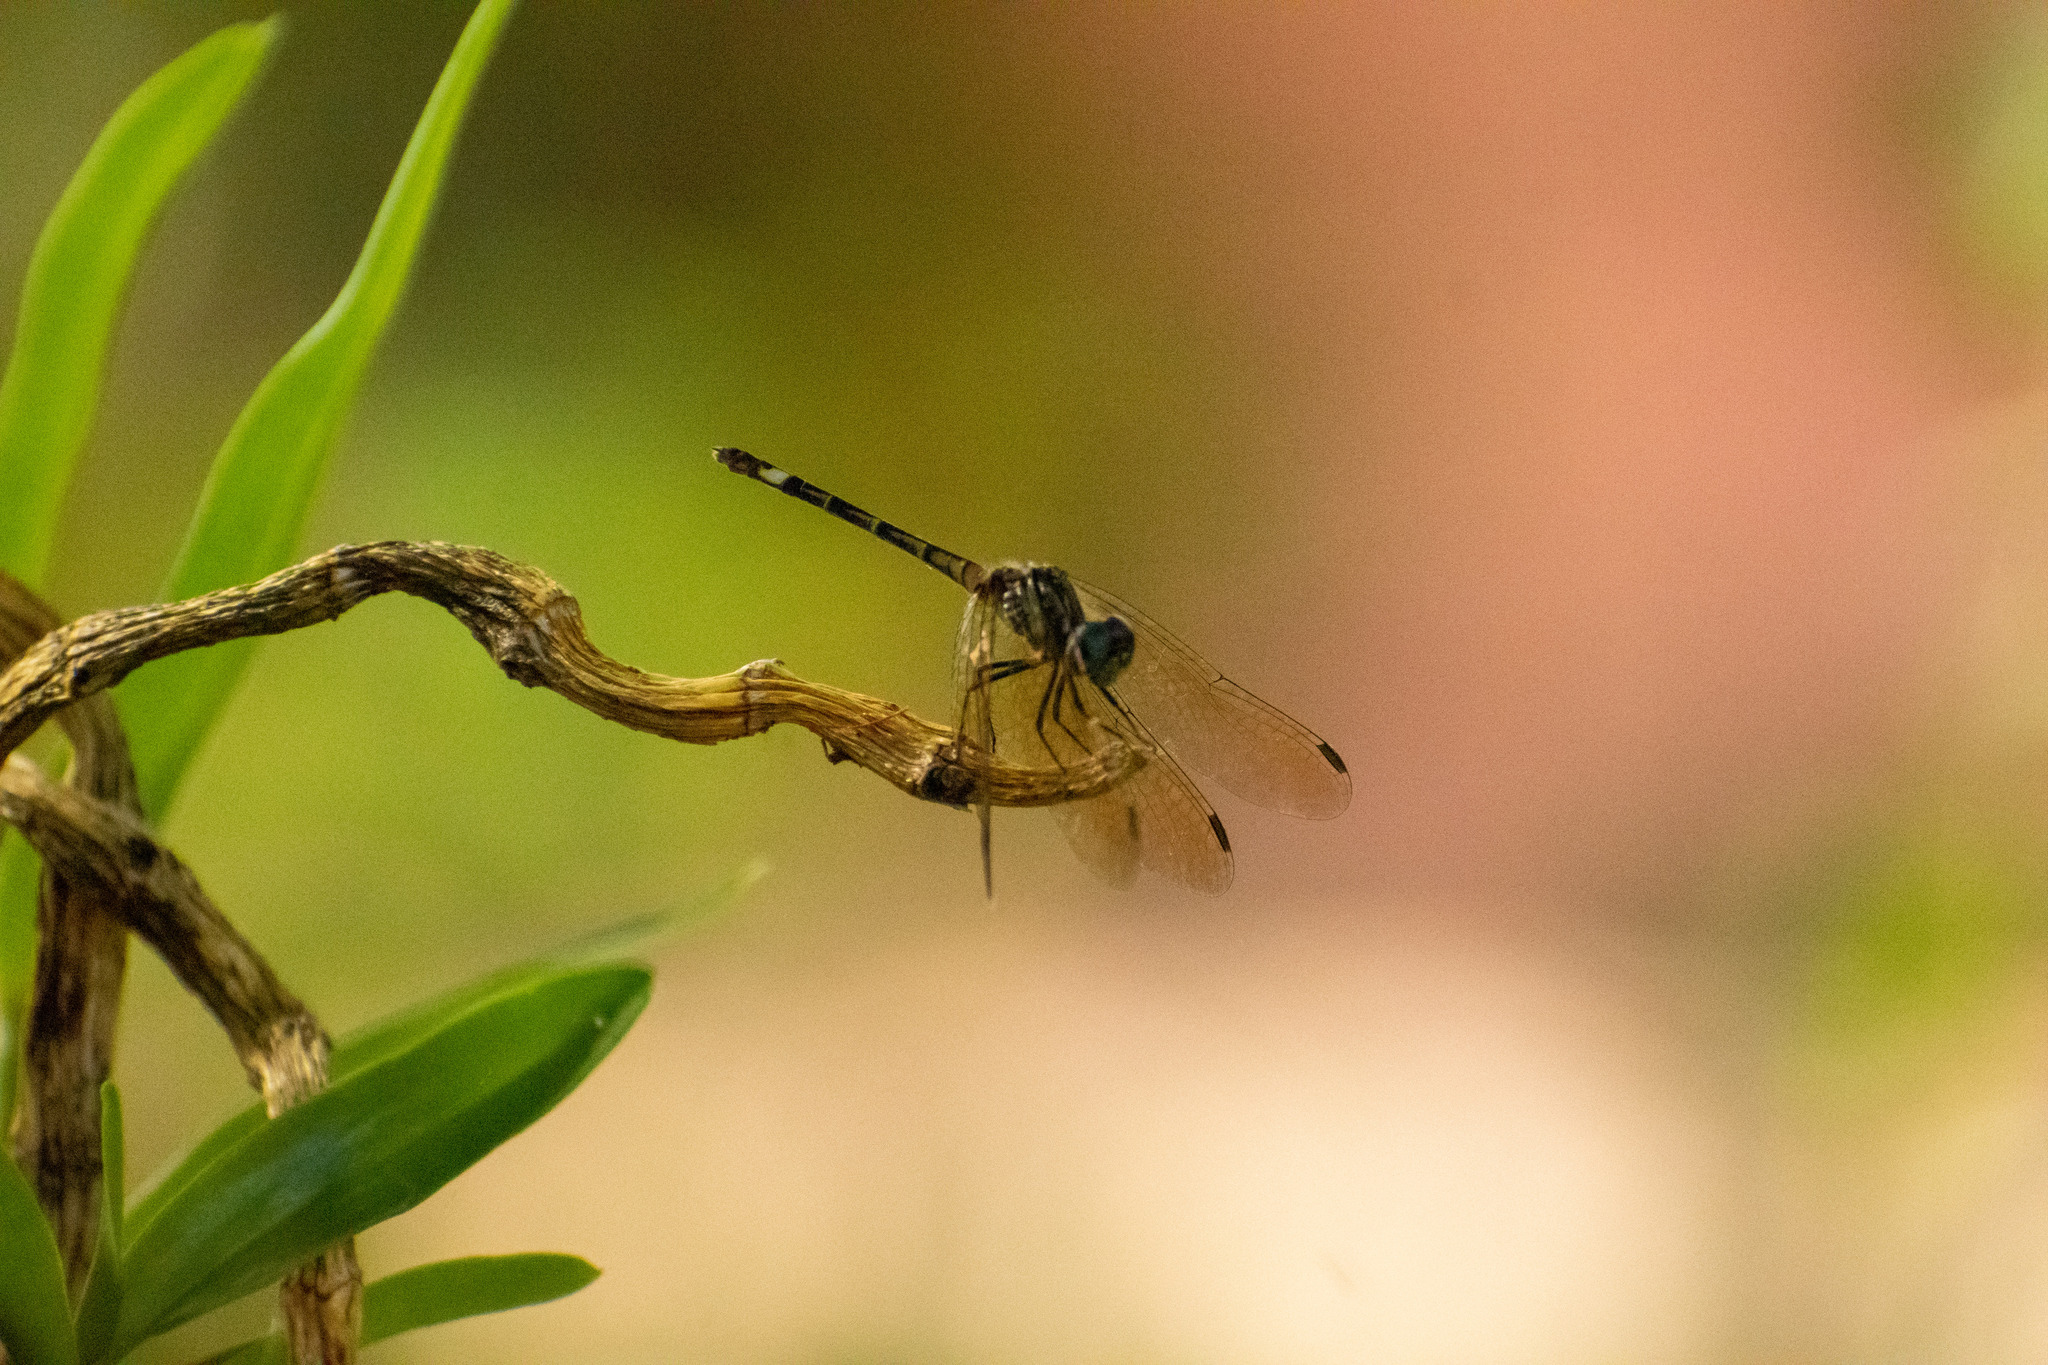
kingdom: Animalia
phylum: Arthropoda
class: Insecta
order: Odonata
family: Libellulidae
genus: Micrathyria
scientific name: Micrathyria hypodidyma
